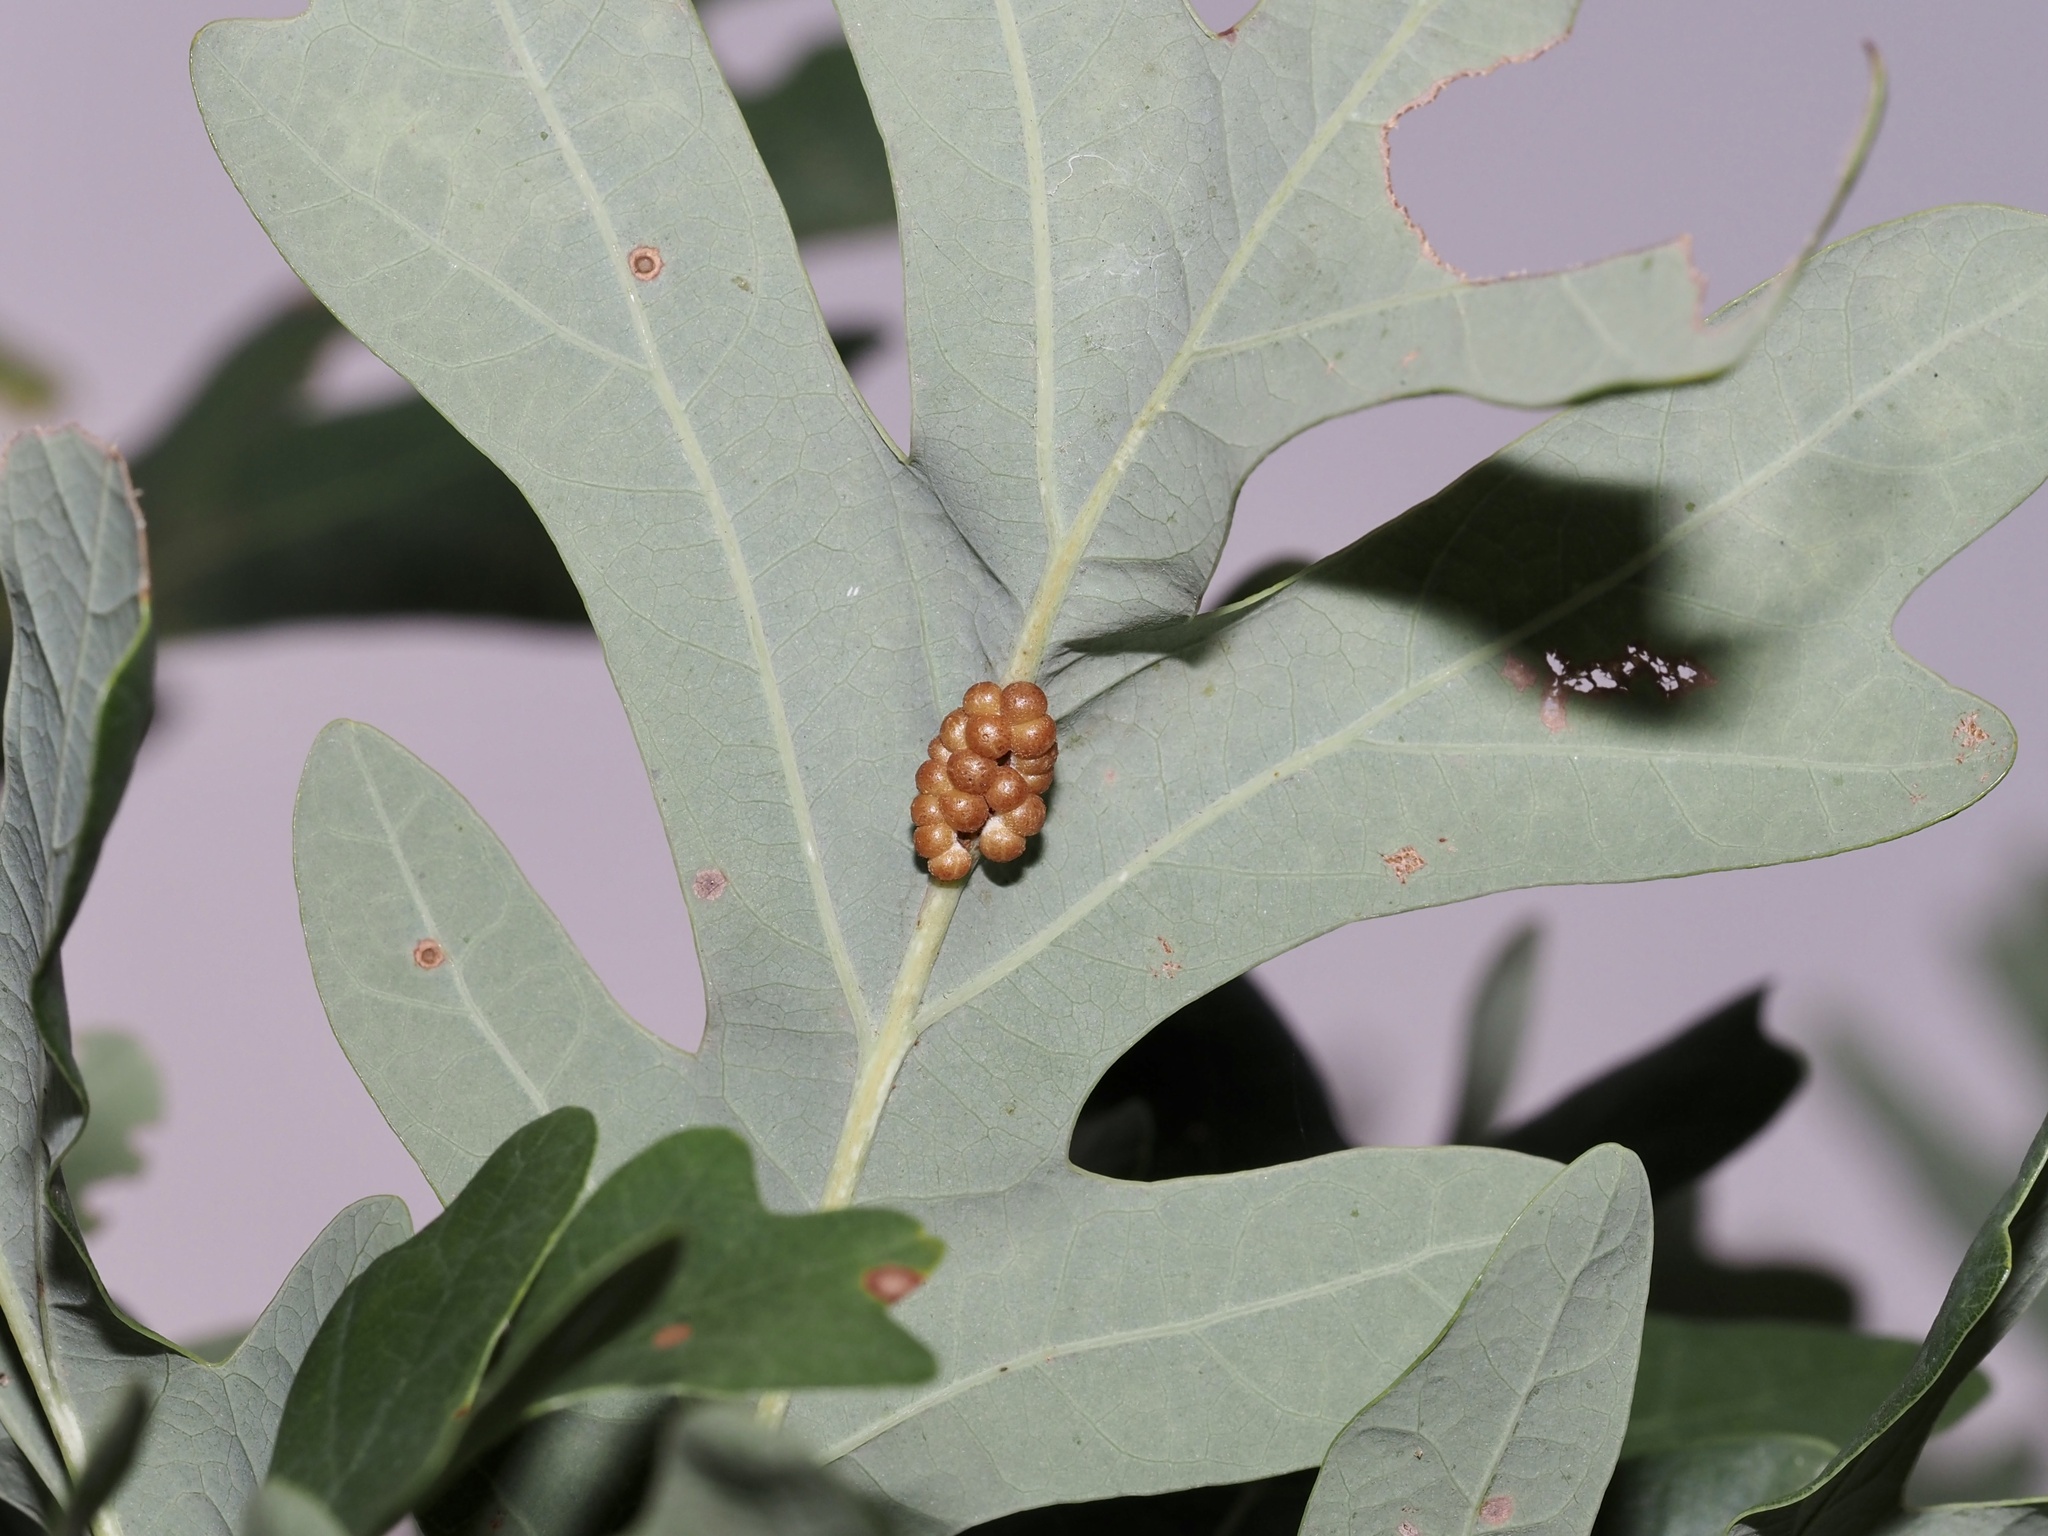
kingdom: Animalia
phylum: Arthropoda
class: Insecta
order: Hymenoptera
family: Cynipidae
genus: Andricus
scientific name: Andricus
